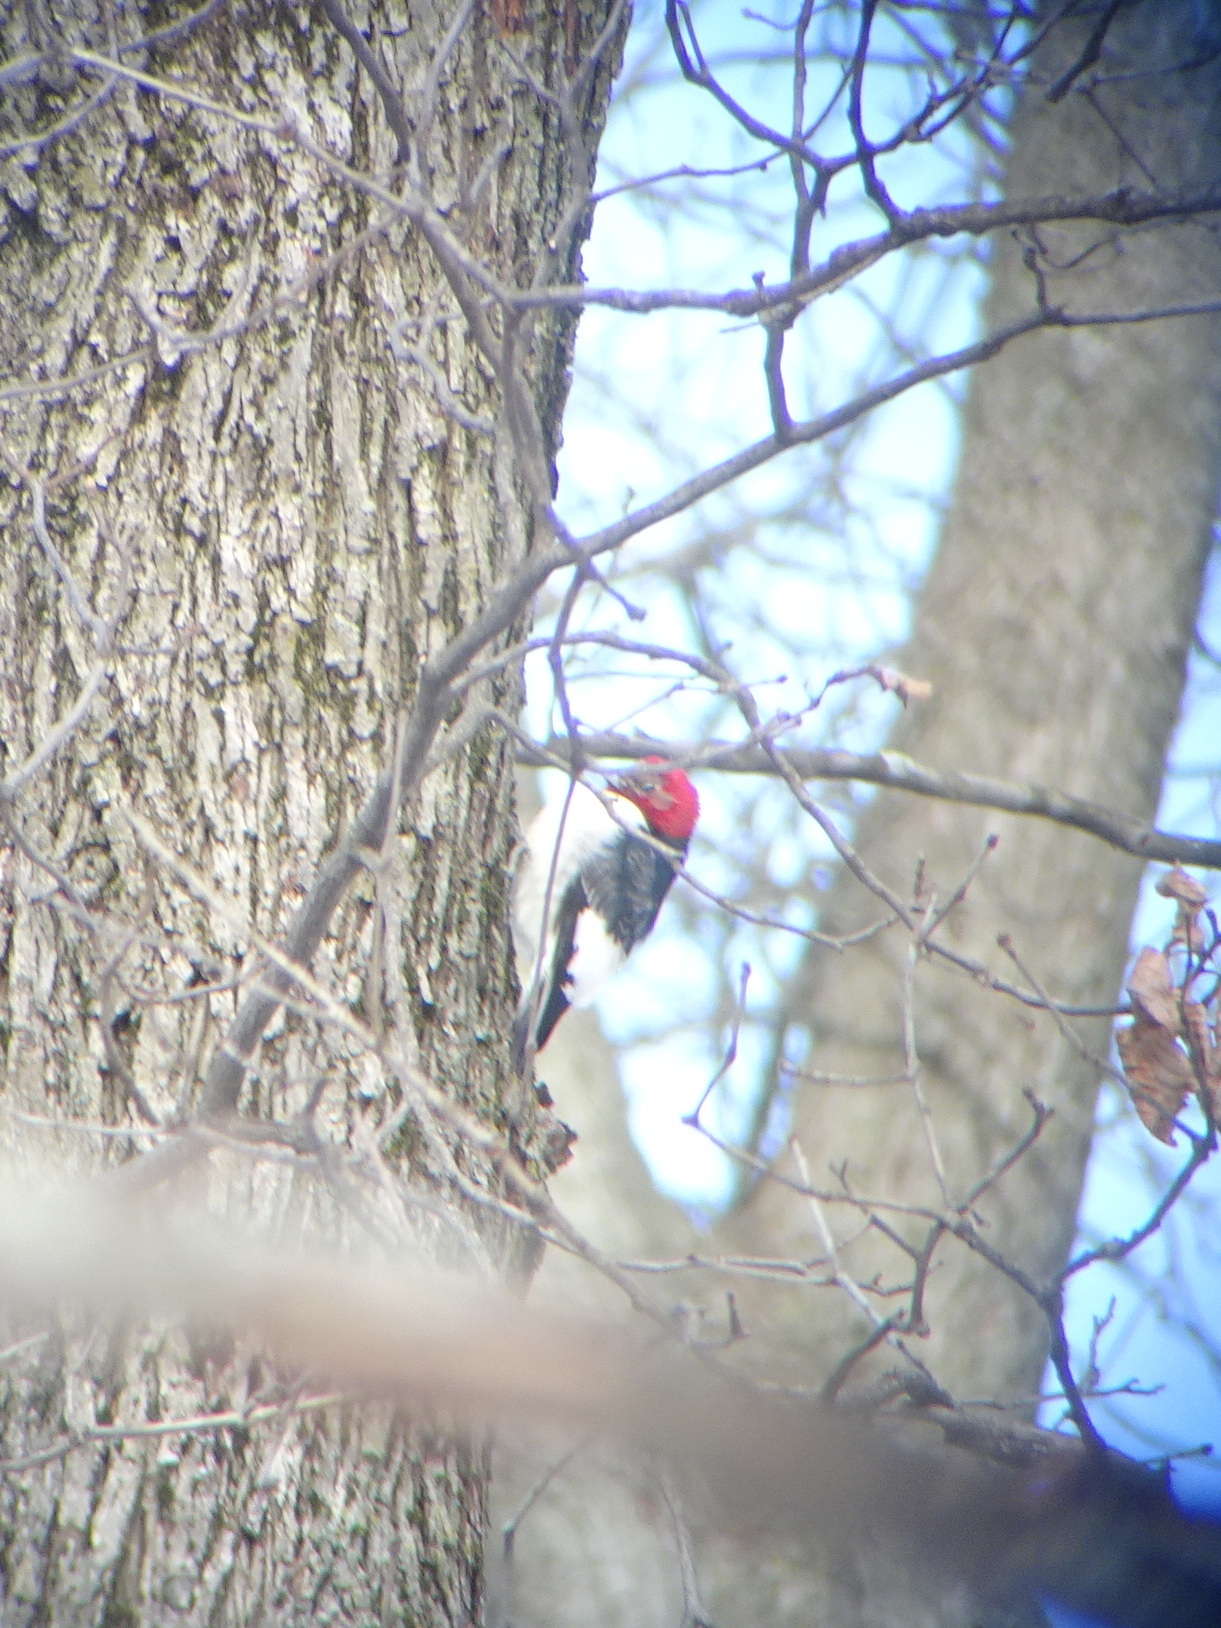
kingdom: Animalia
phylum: Chordata
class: Aves
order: Piciformes
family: Picidae
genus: Melanerpes
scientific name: Melanerpes erythrocephalus
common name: Red-headed woodpecker
